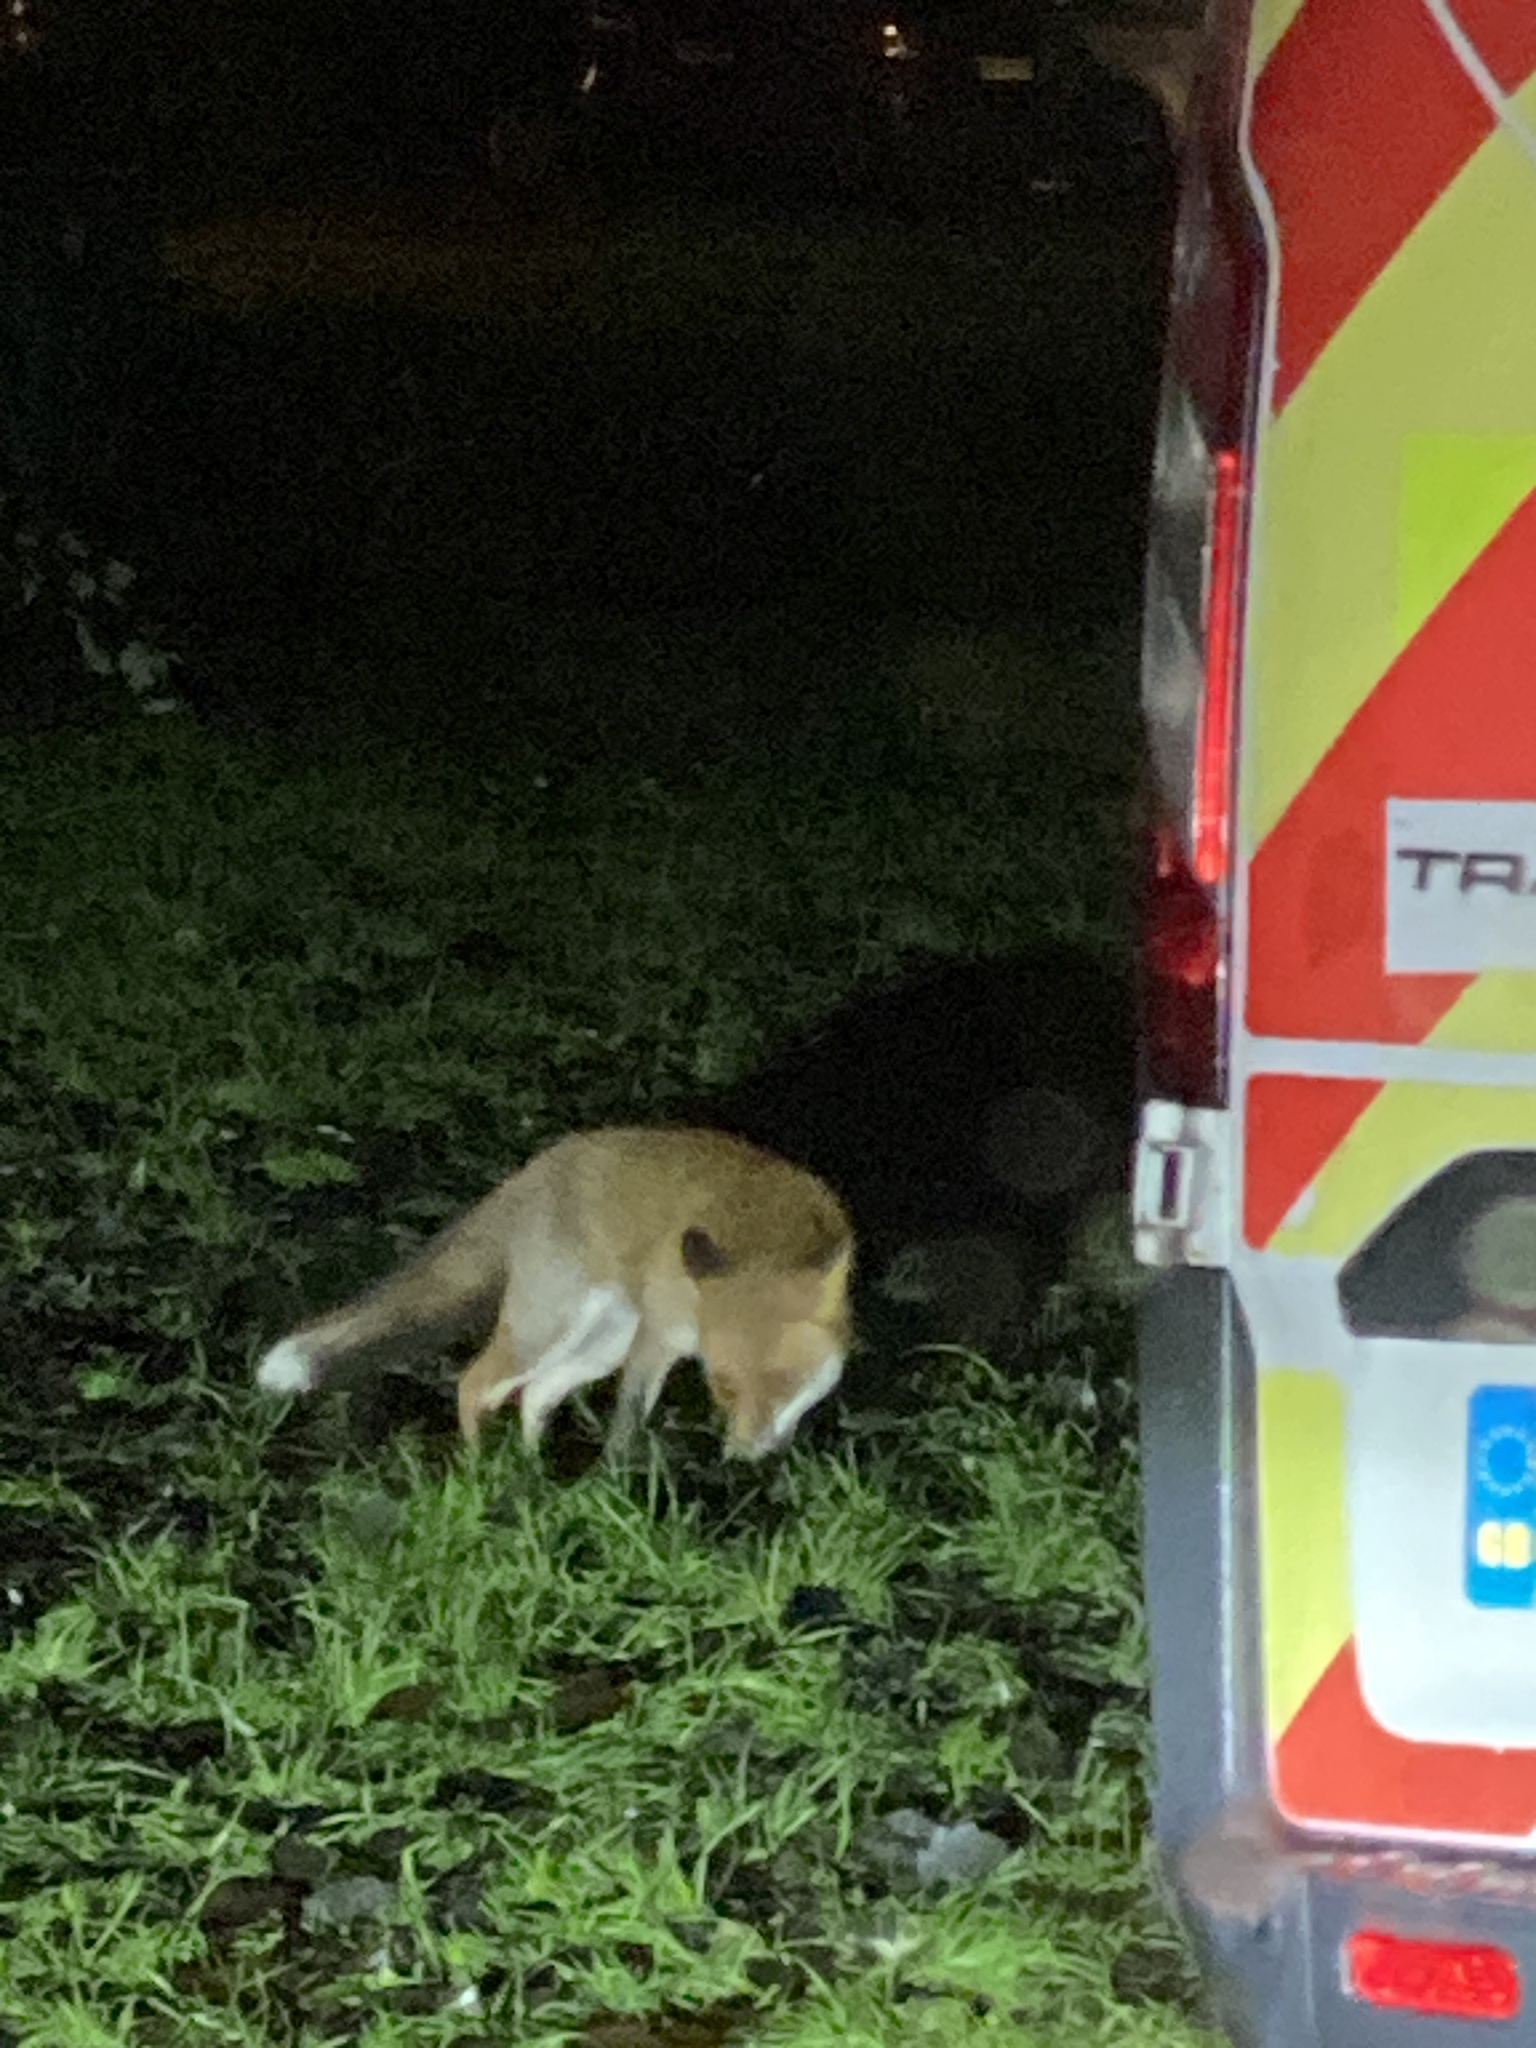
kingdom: Animalia
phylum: Chordata
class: Mammalia
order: Carnivora
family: Canidae
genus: Vulpes
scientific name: Vulpes vulpes
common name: Red fox
